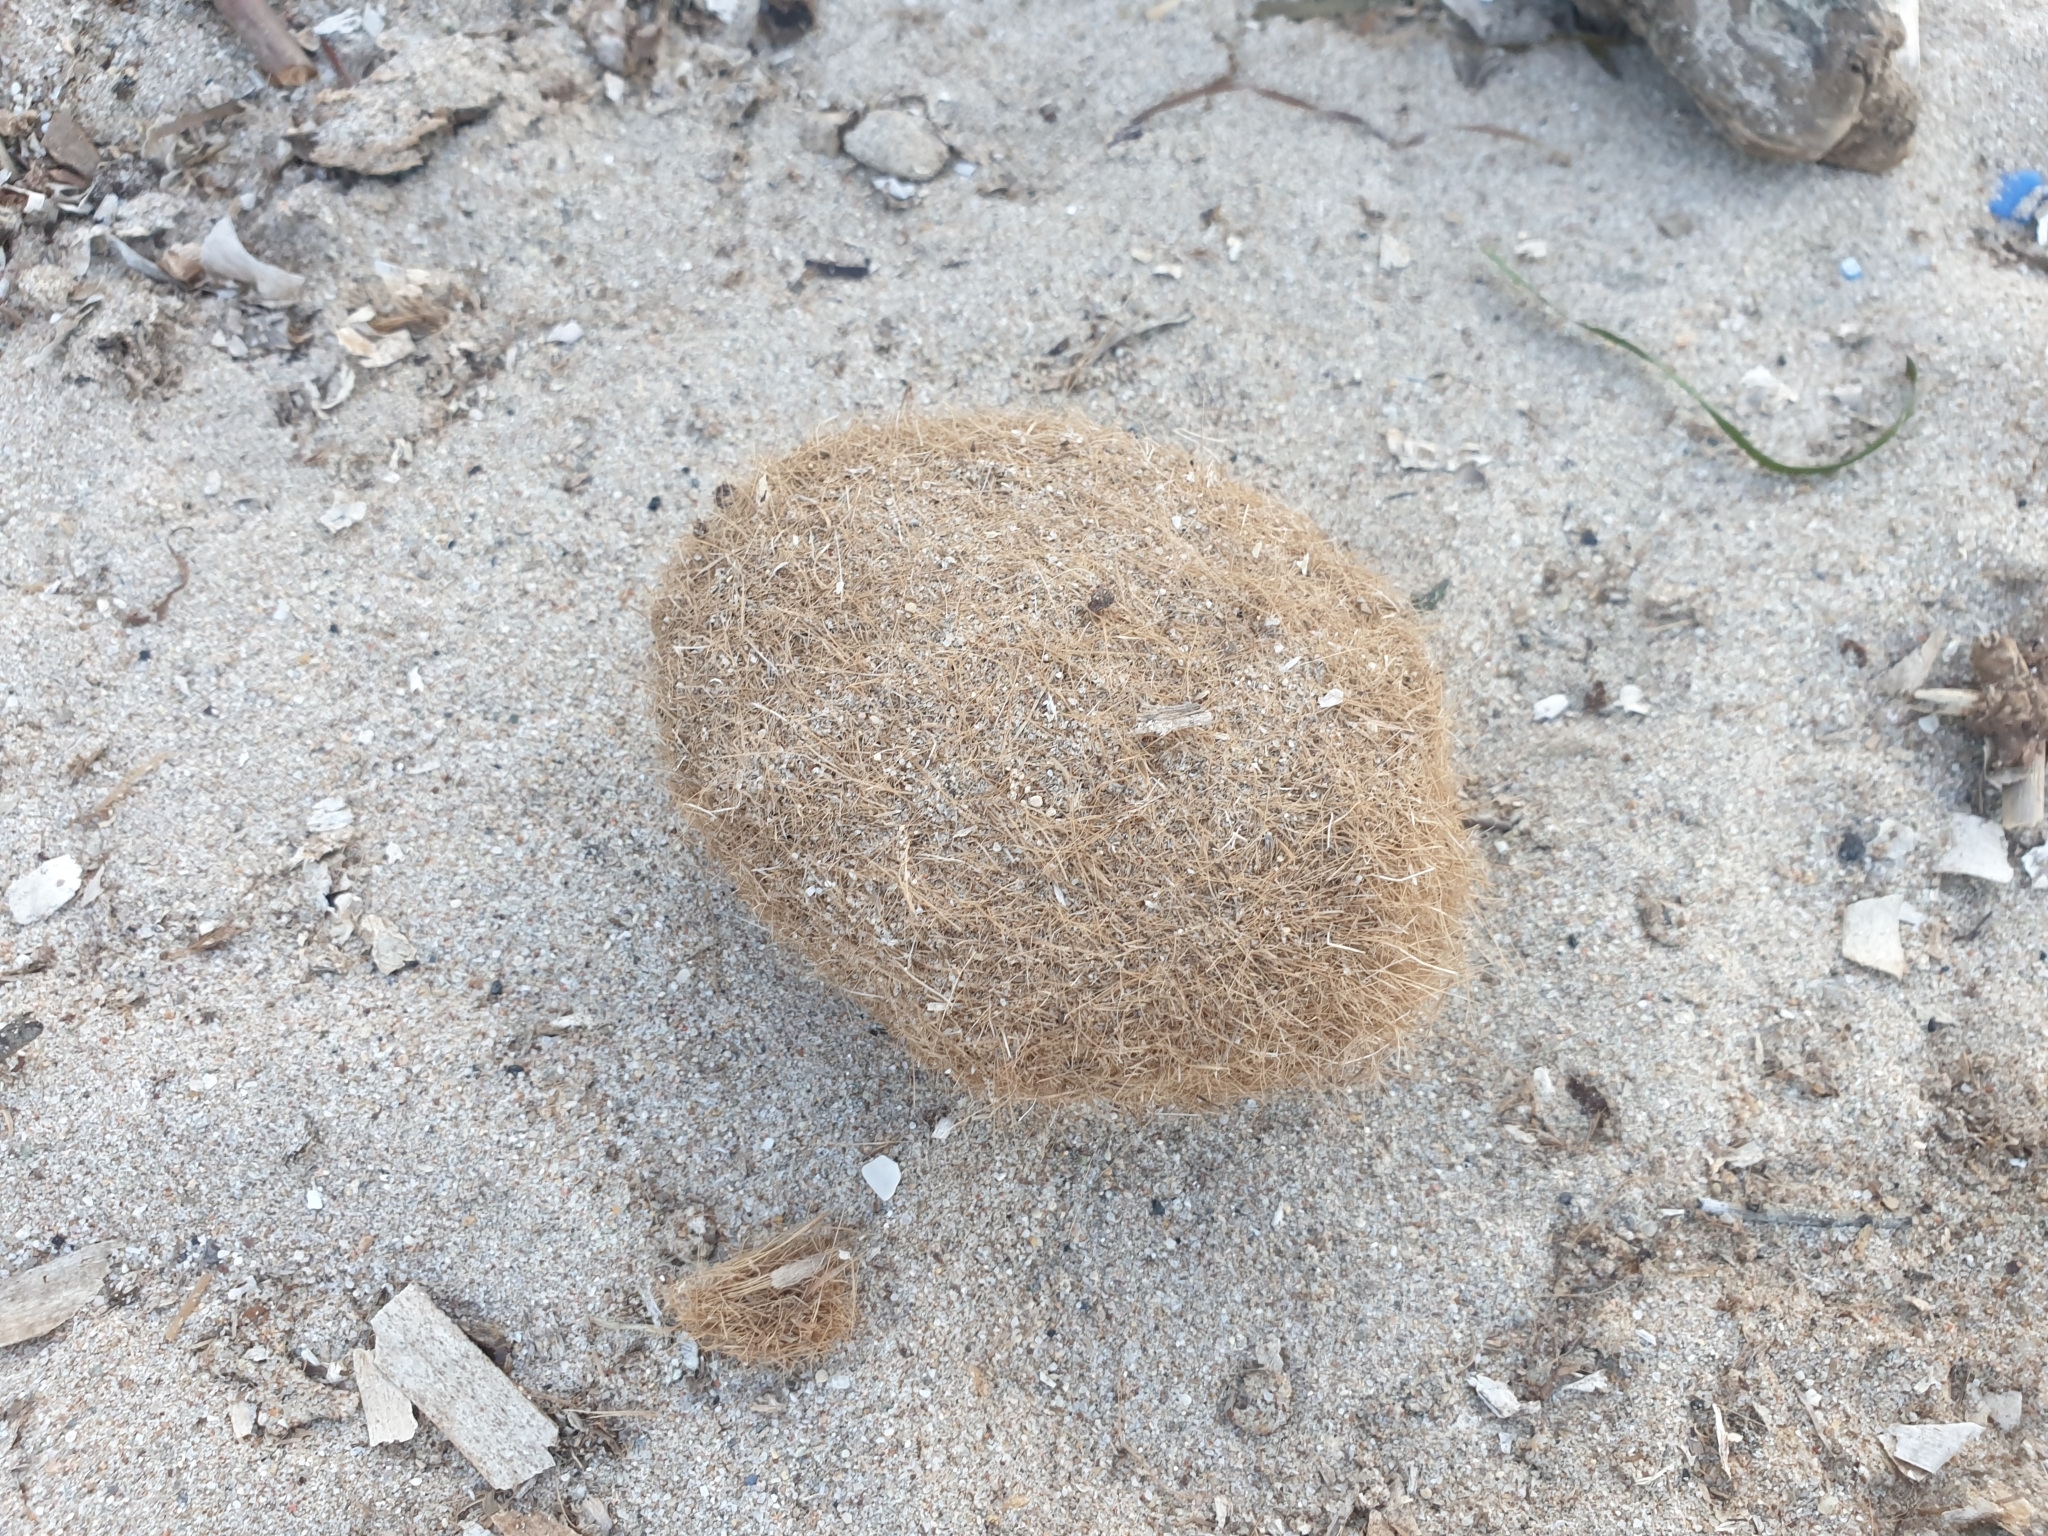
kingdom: Plantae
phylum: Tracheophyta
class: Liliopsida
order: Alismatales
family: Posidoniaceae
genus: Posidonia
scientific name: Posidonia oceanica
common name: Mediterranean tapeweed
